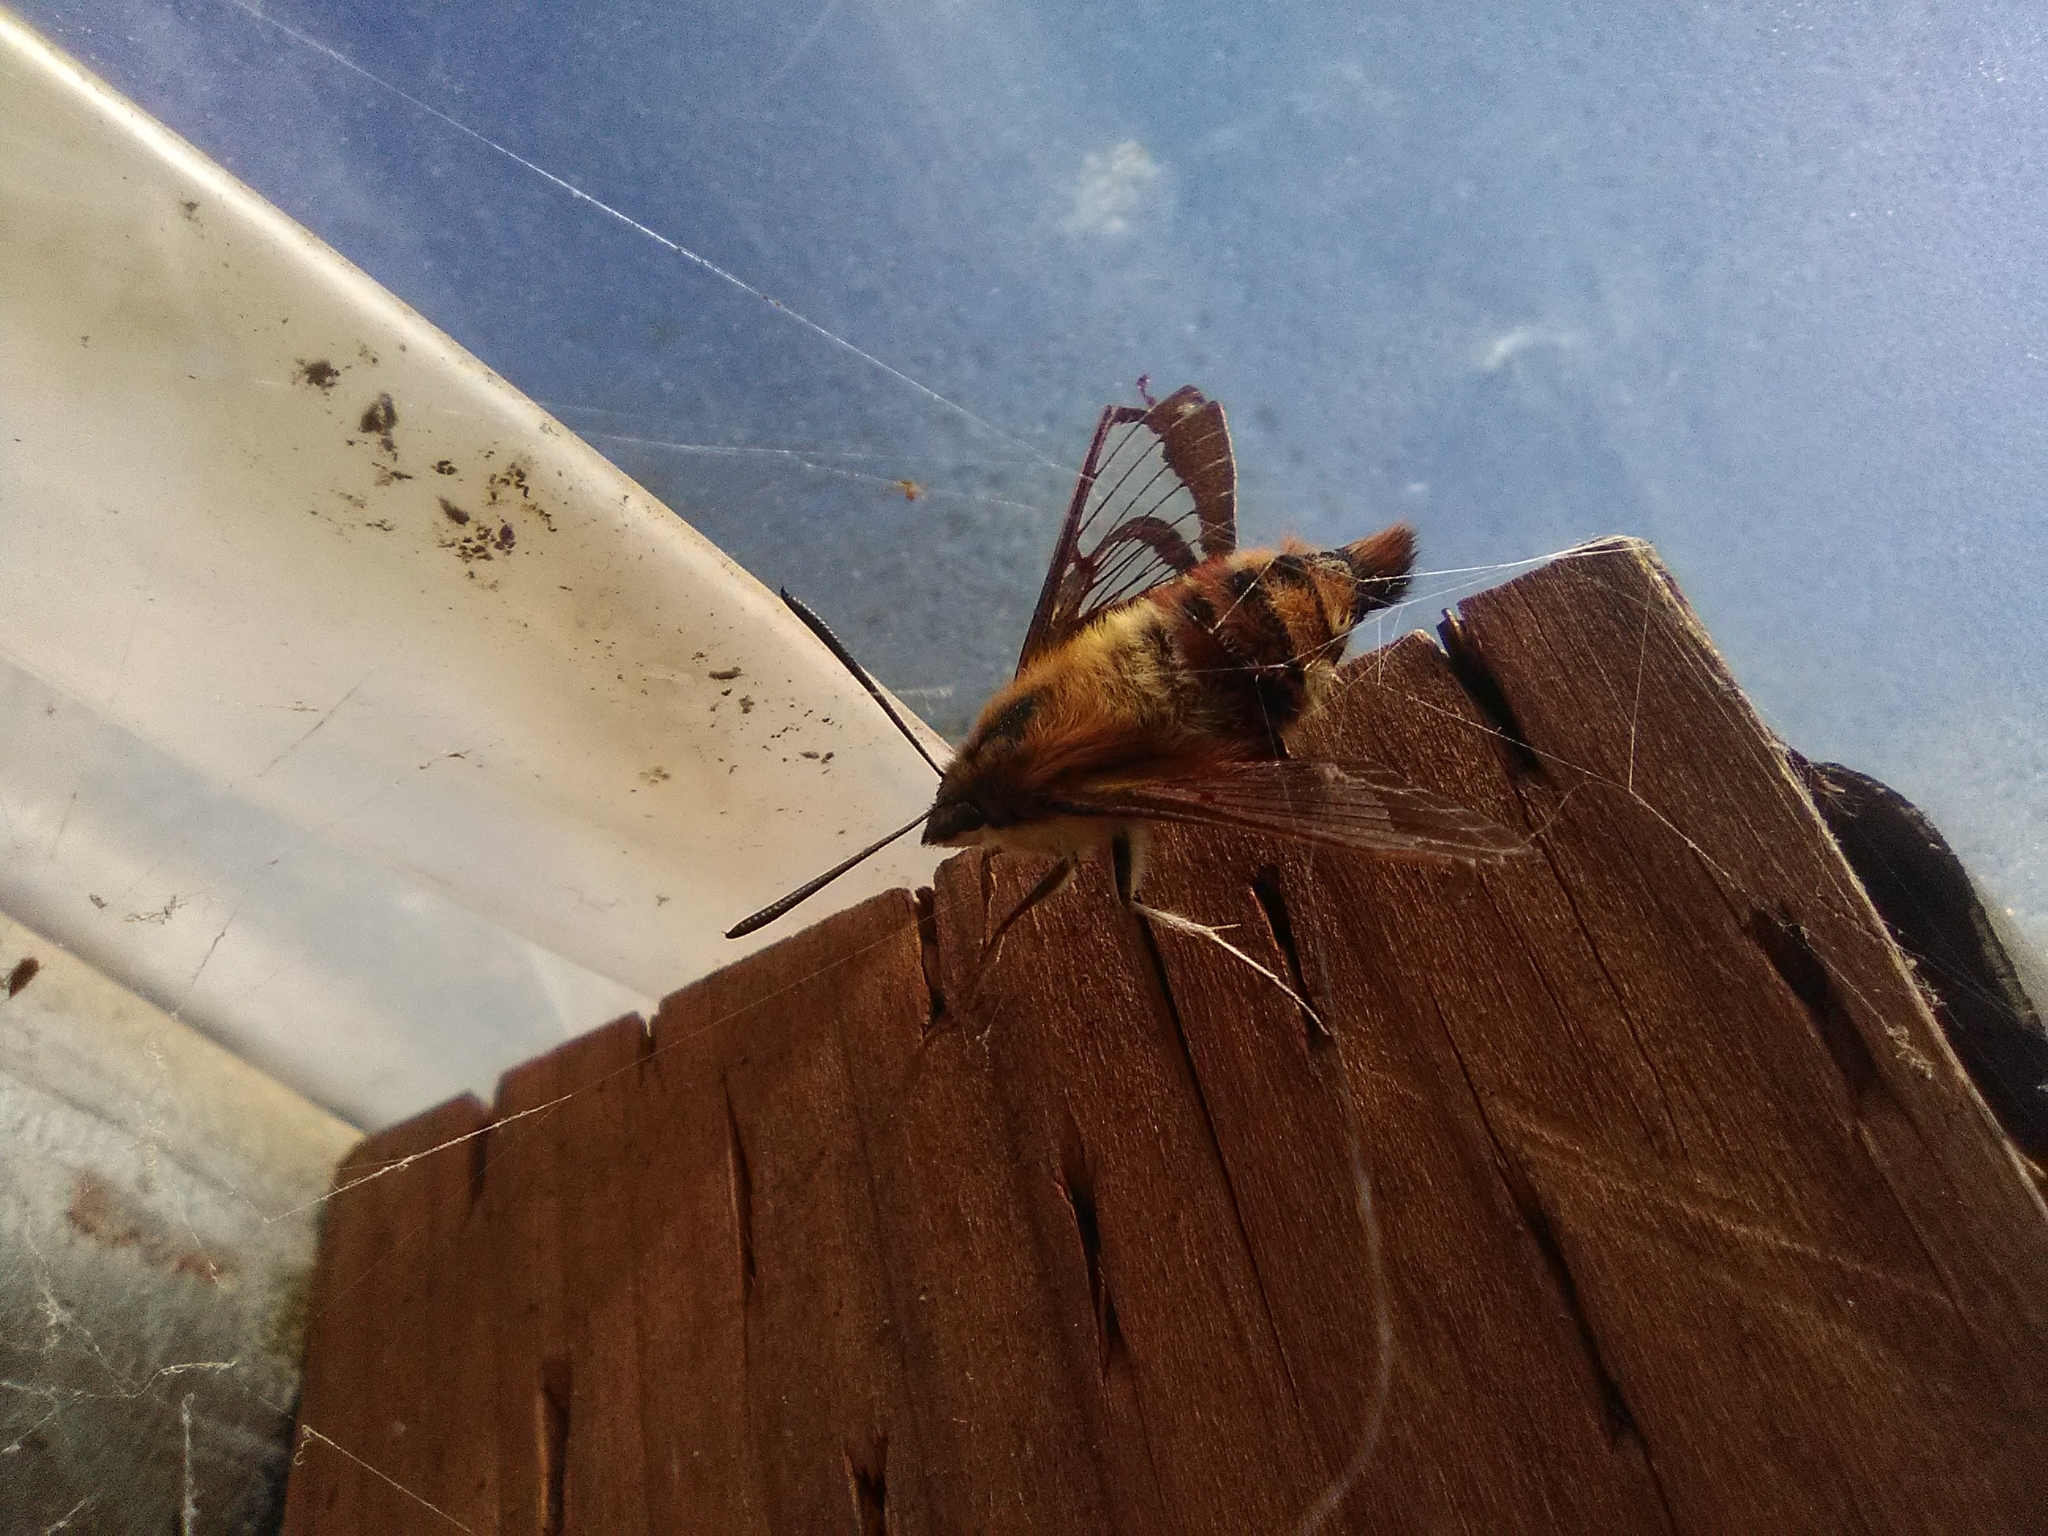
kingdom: Animalia
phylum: Arthropoda
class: Insecta
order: Lepidoptera
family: Sphingidae
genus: Hemaris
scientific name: Hemaris thysbe
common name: Common clear-wing
